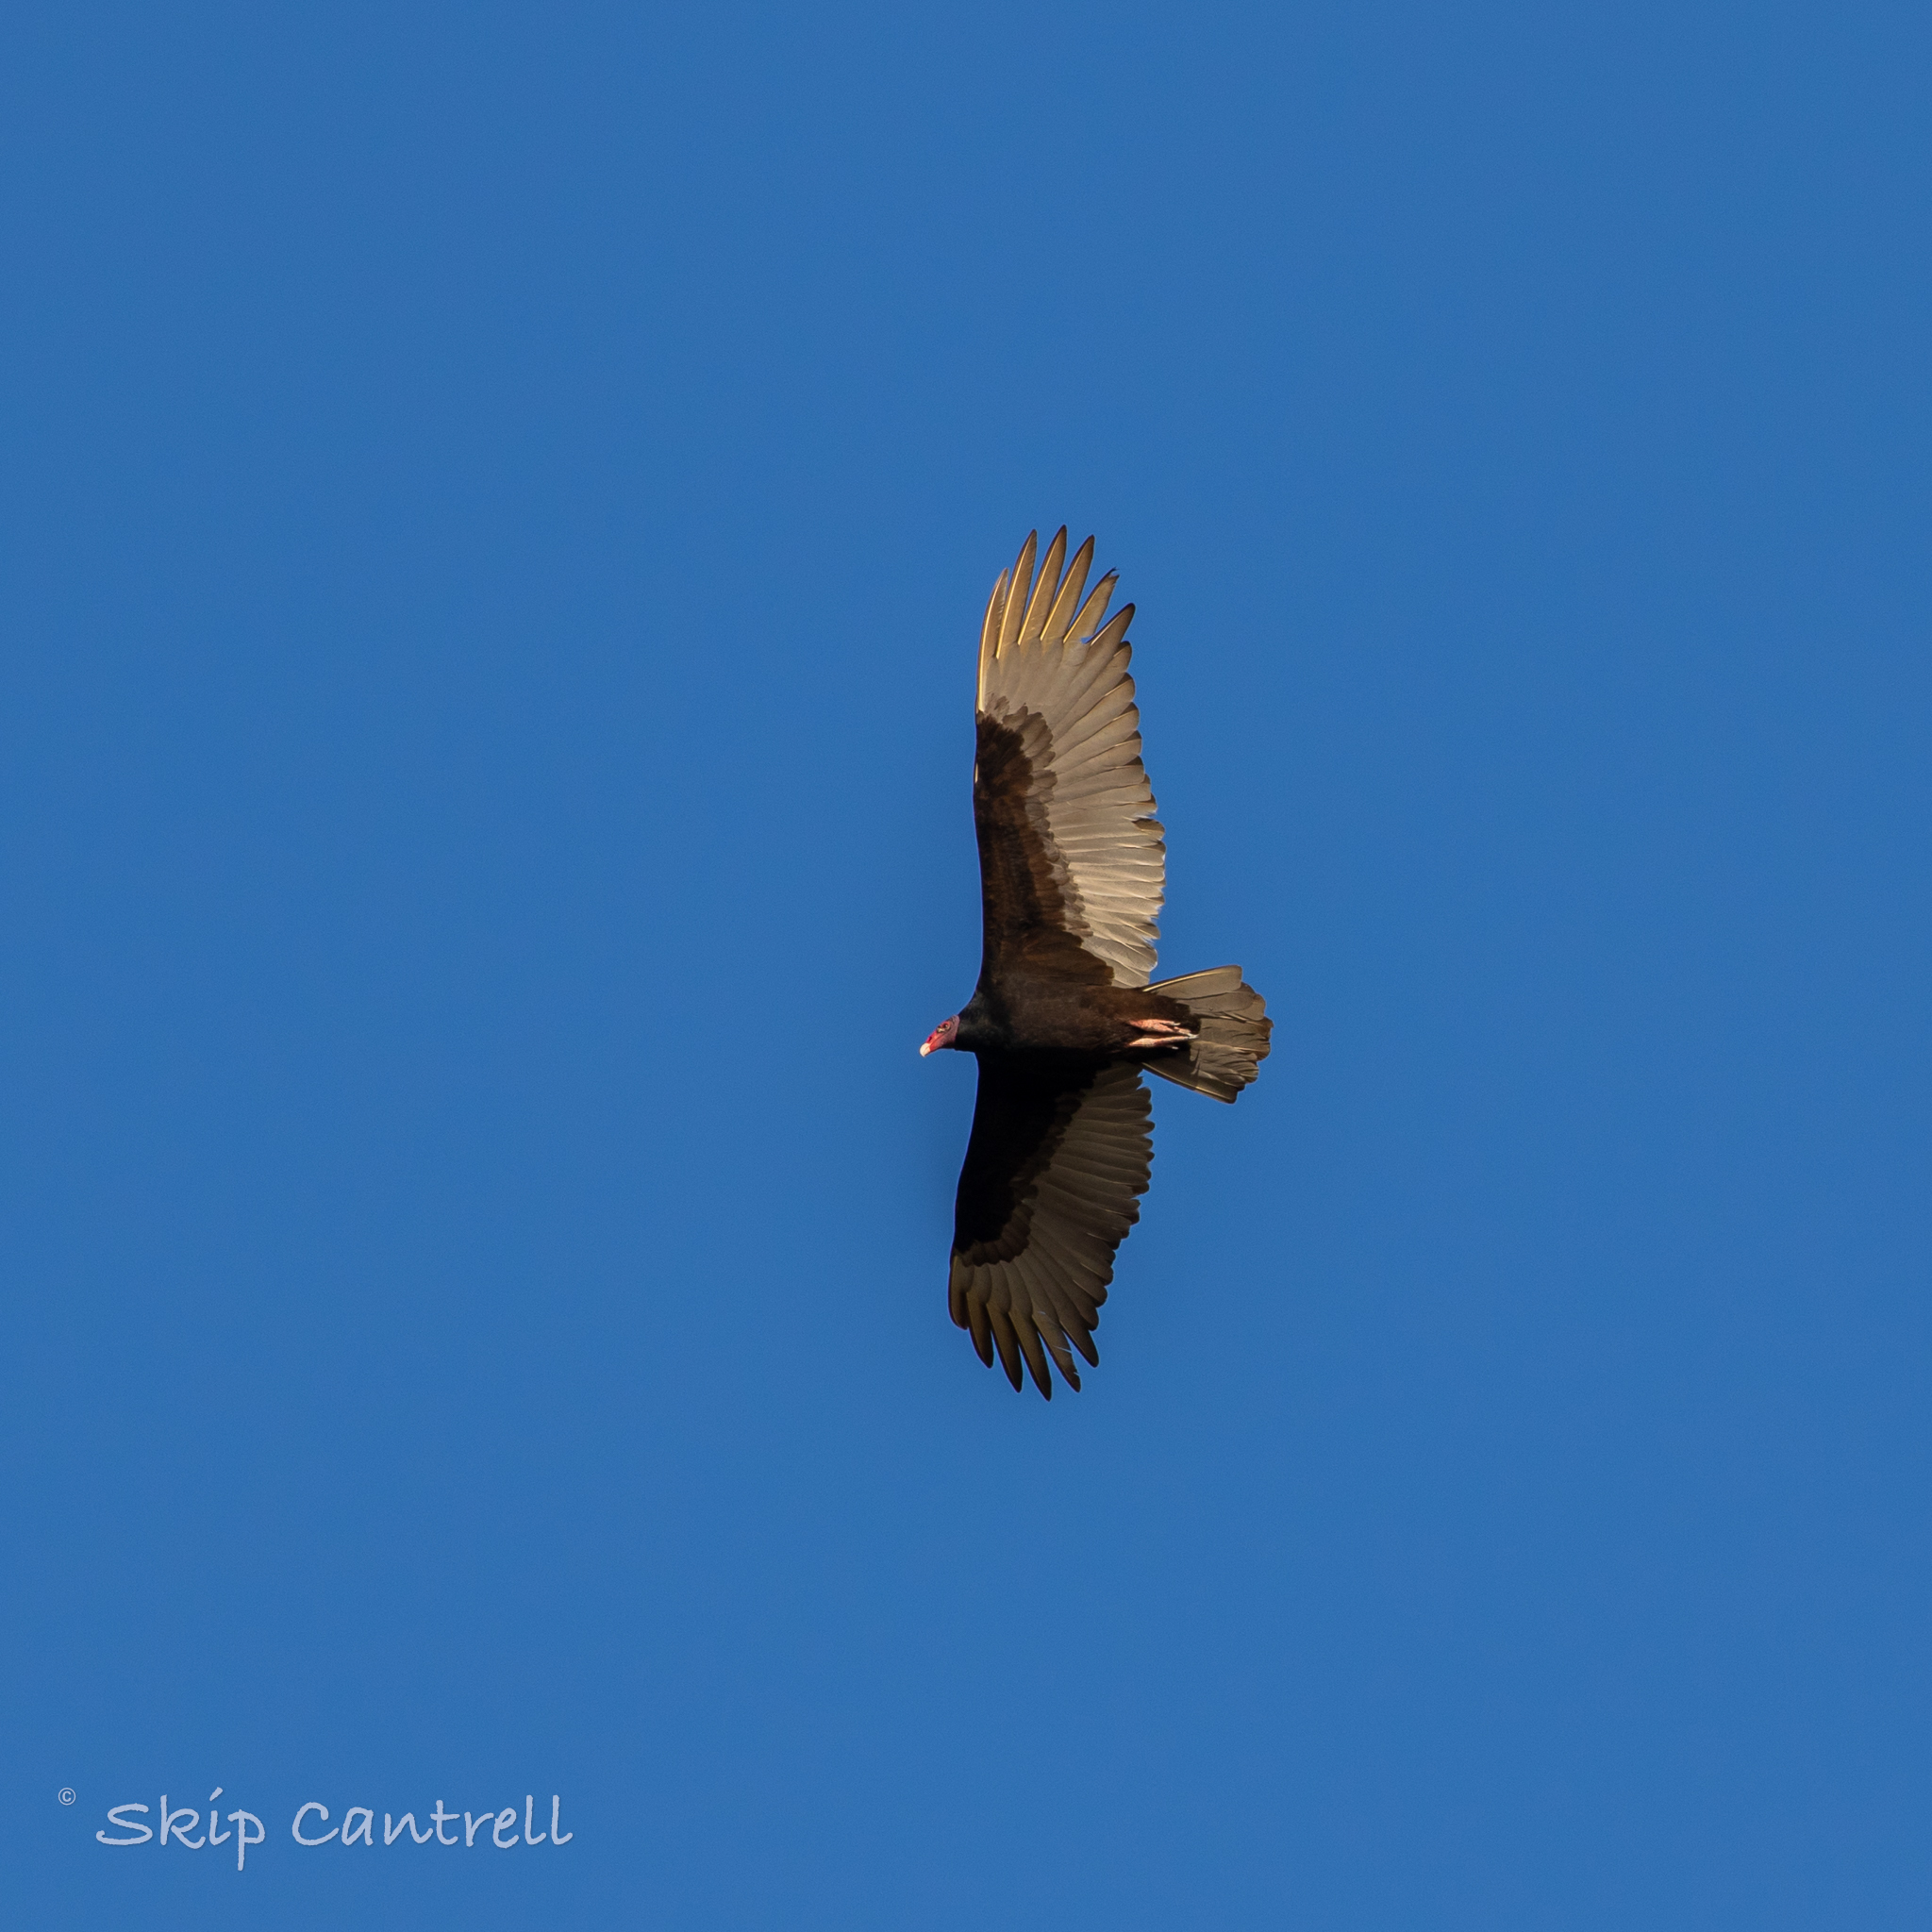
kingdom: Animalia
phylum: Chordata
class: Aves
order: Accipitriformes
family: Cathartidae
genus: Cathartes
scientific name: Cathartes aura
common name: Turkey vulture
